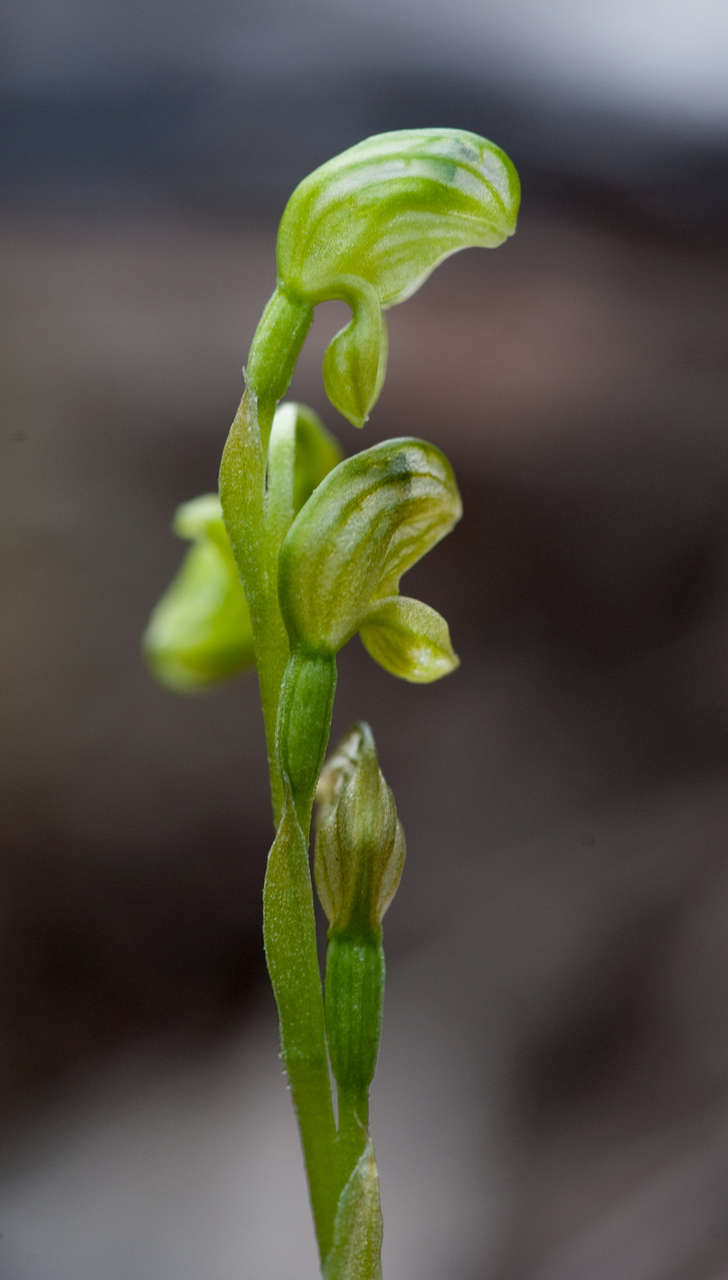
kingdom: Plantae
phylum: Tracheophyta
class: Liliopsida
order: Asparagales
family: Orchidaceae
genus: Pterostylis
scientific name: Pterostylis cycnocephala
